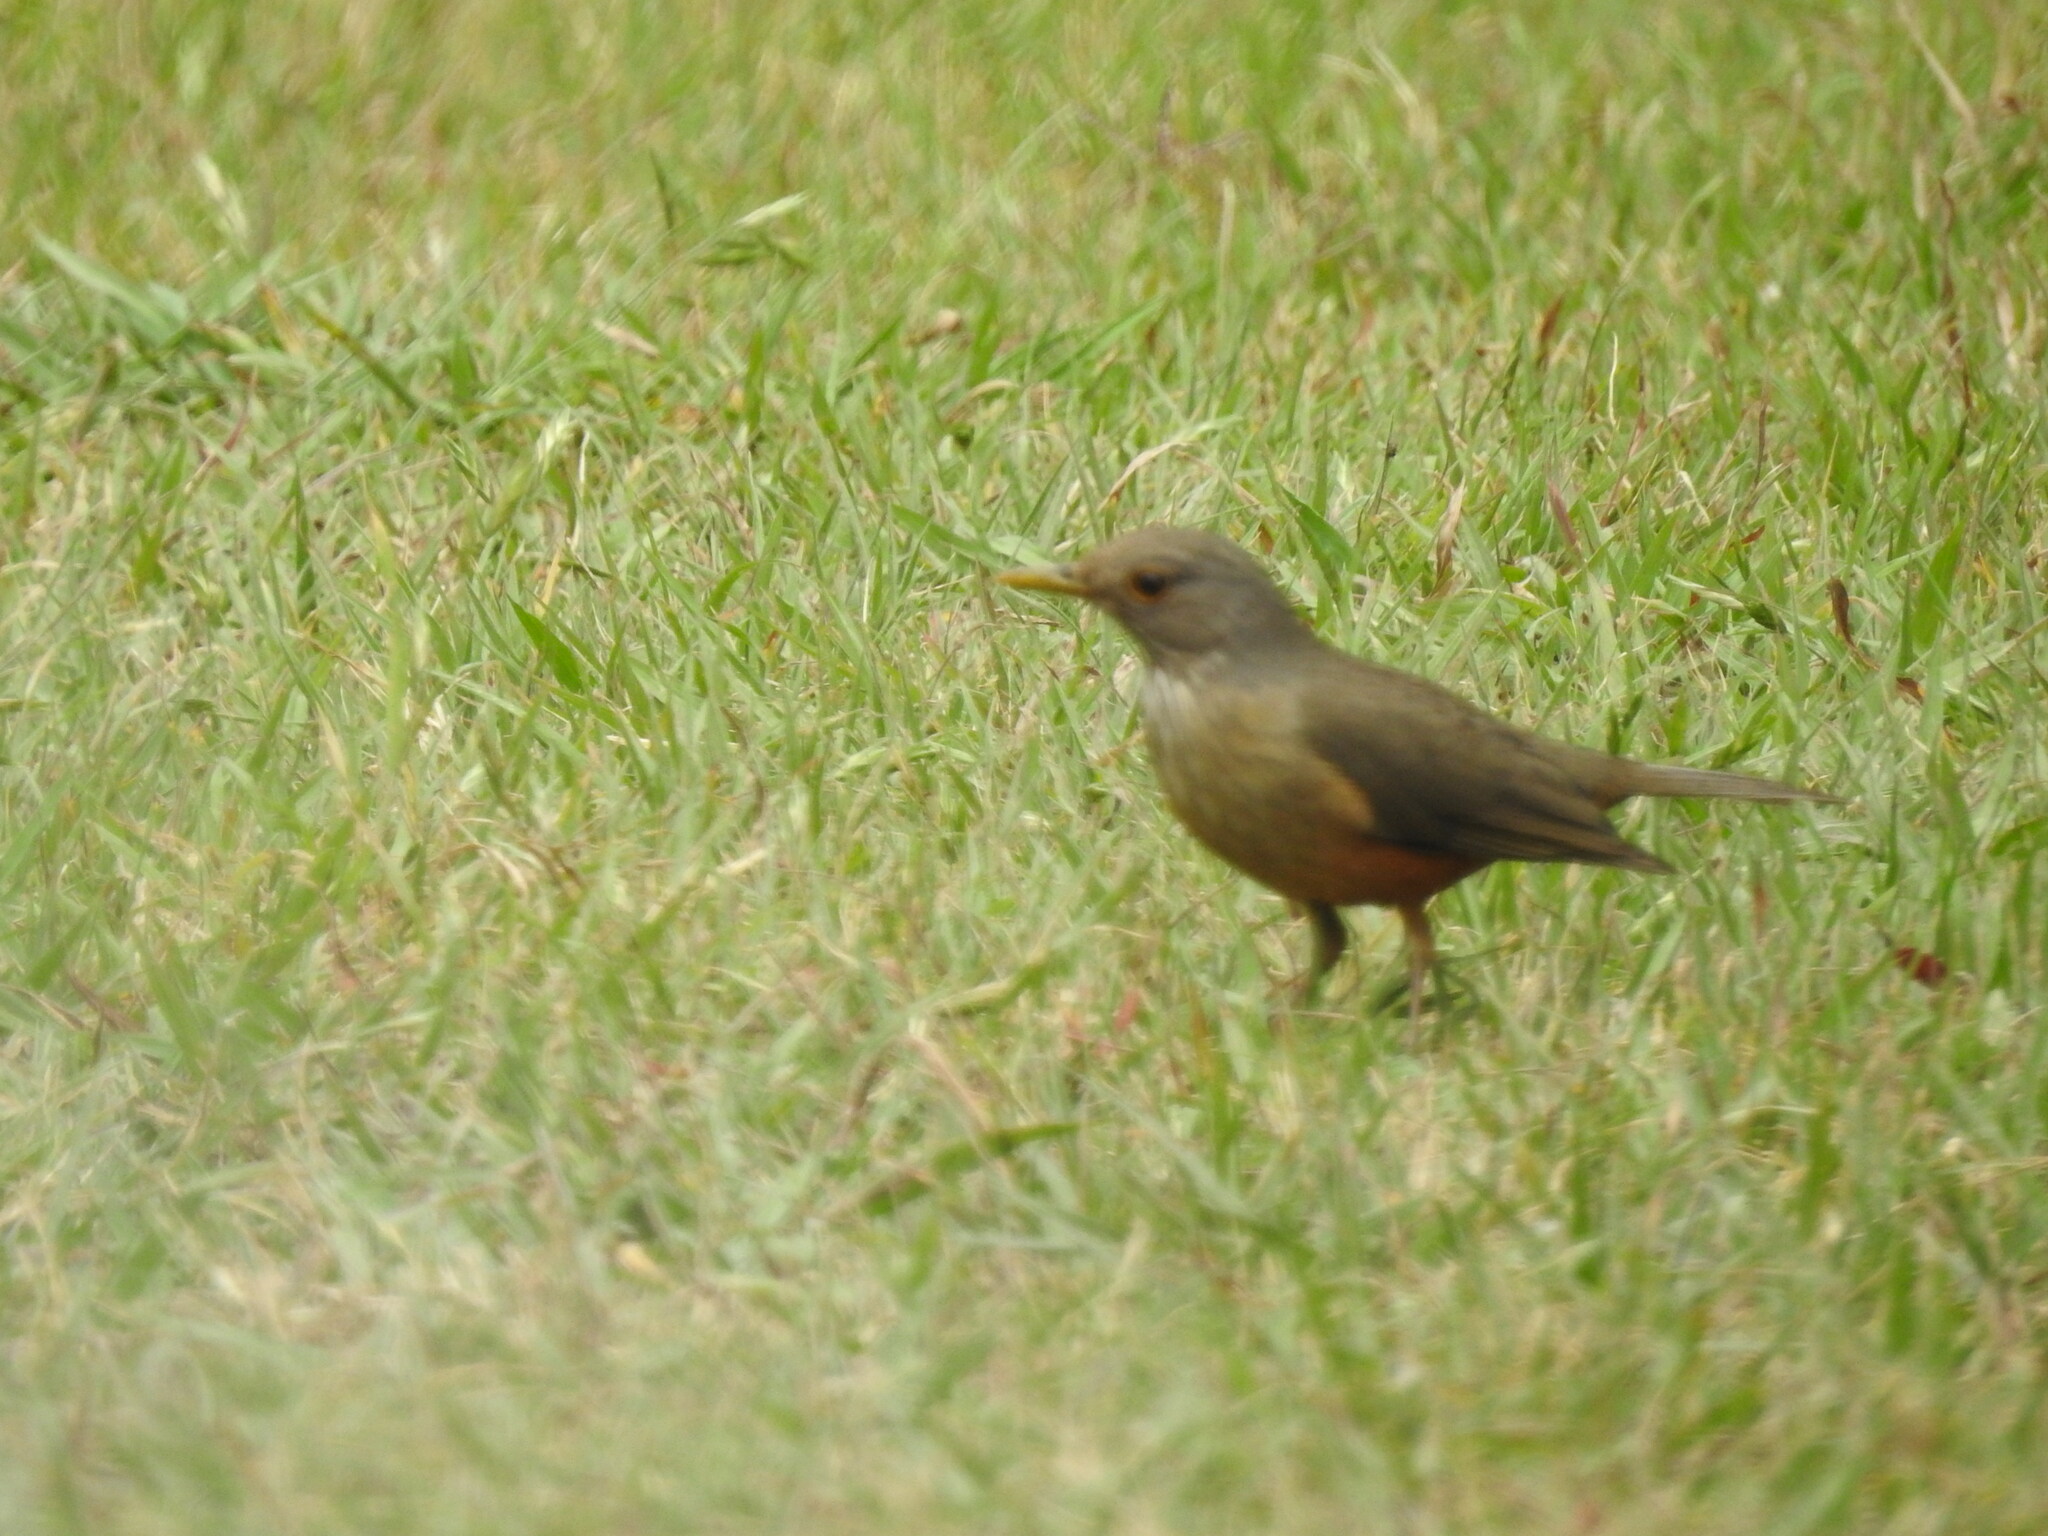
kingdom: Animalia
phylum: Chordata
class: Aves
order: Passeriformes
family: Turdidae
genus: Turdus
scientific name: Turdus rufiventris
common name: Rufous-bellied thrush
